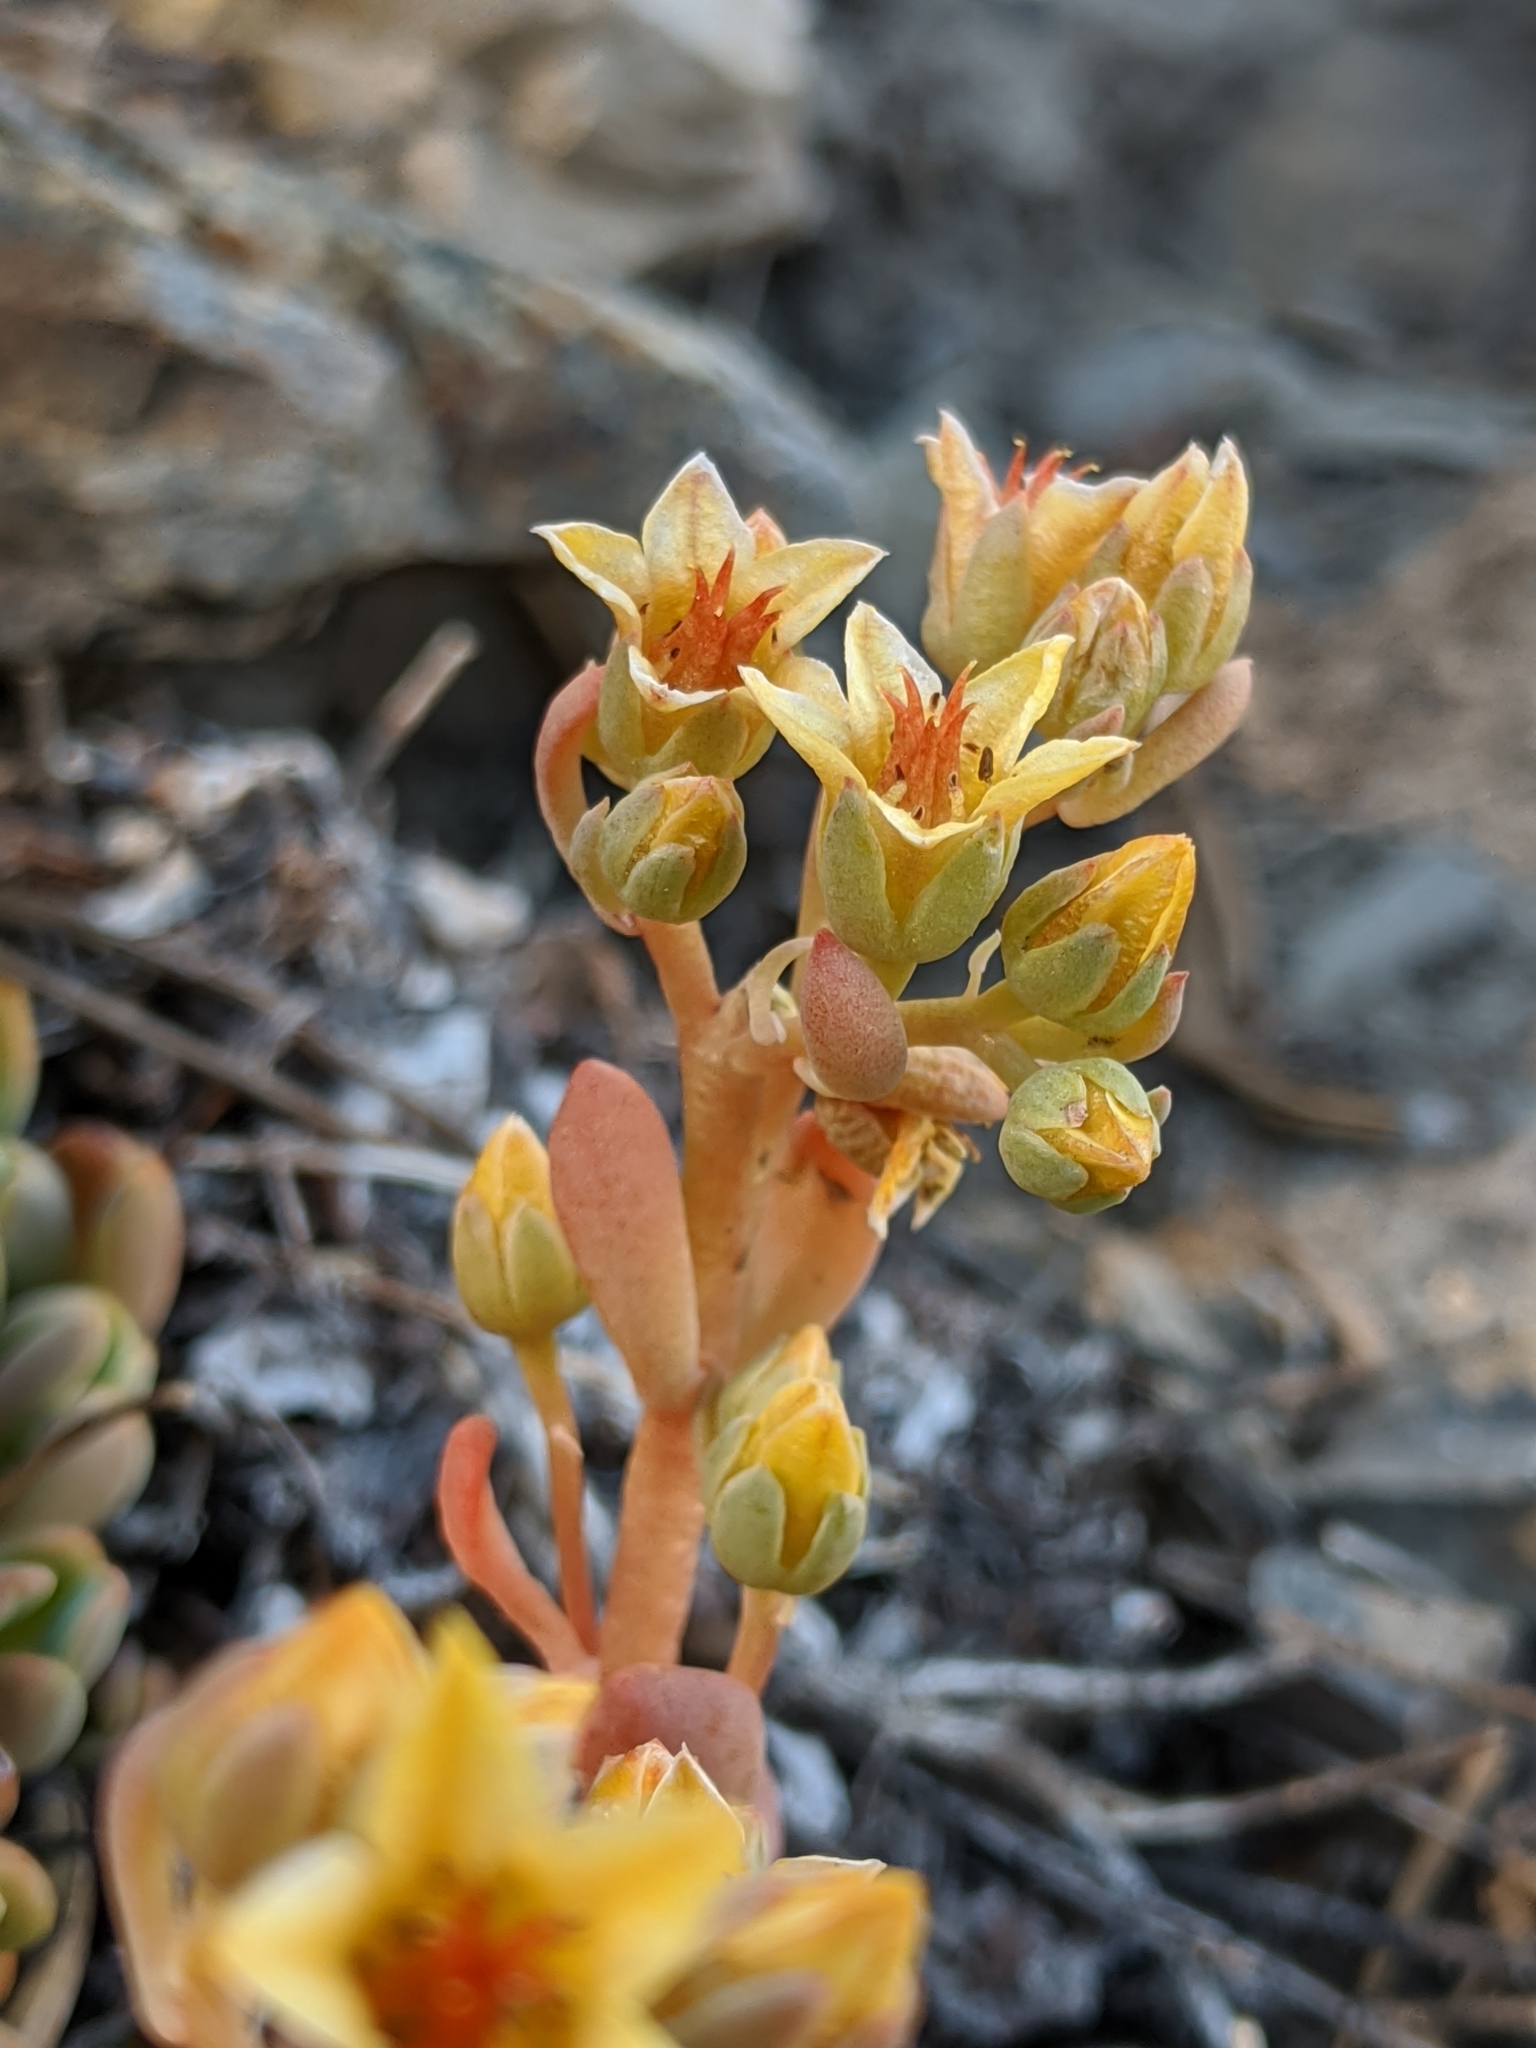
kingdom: Plantae
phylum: Tracheophyta
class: Magnoliopsida
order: Saxifragales
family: Crassulaceae
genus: Sedum
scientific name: Sedum obtusatum
